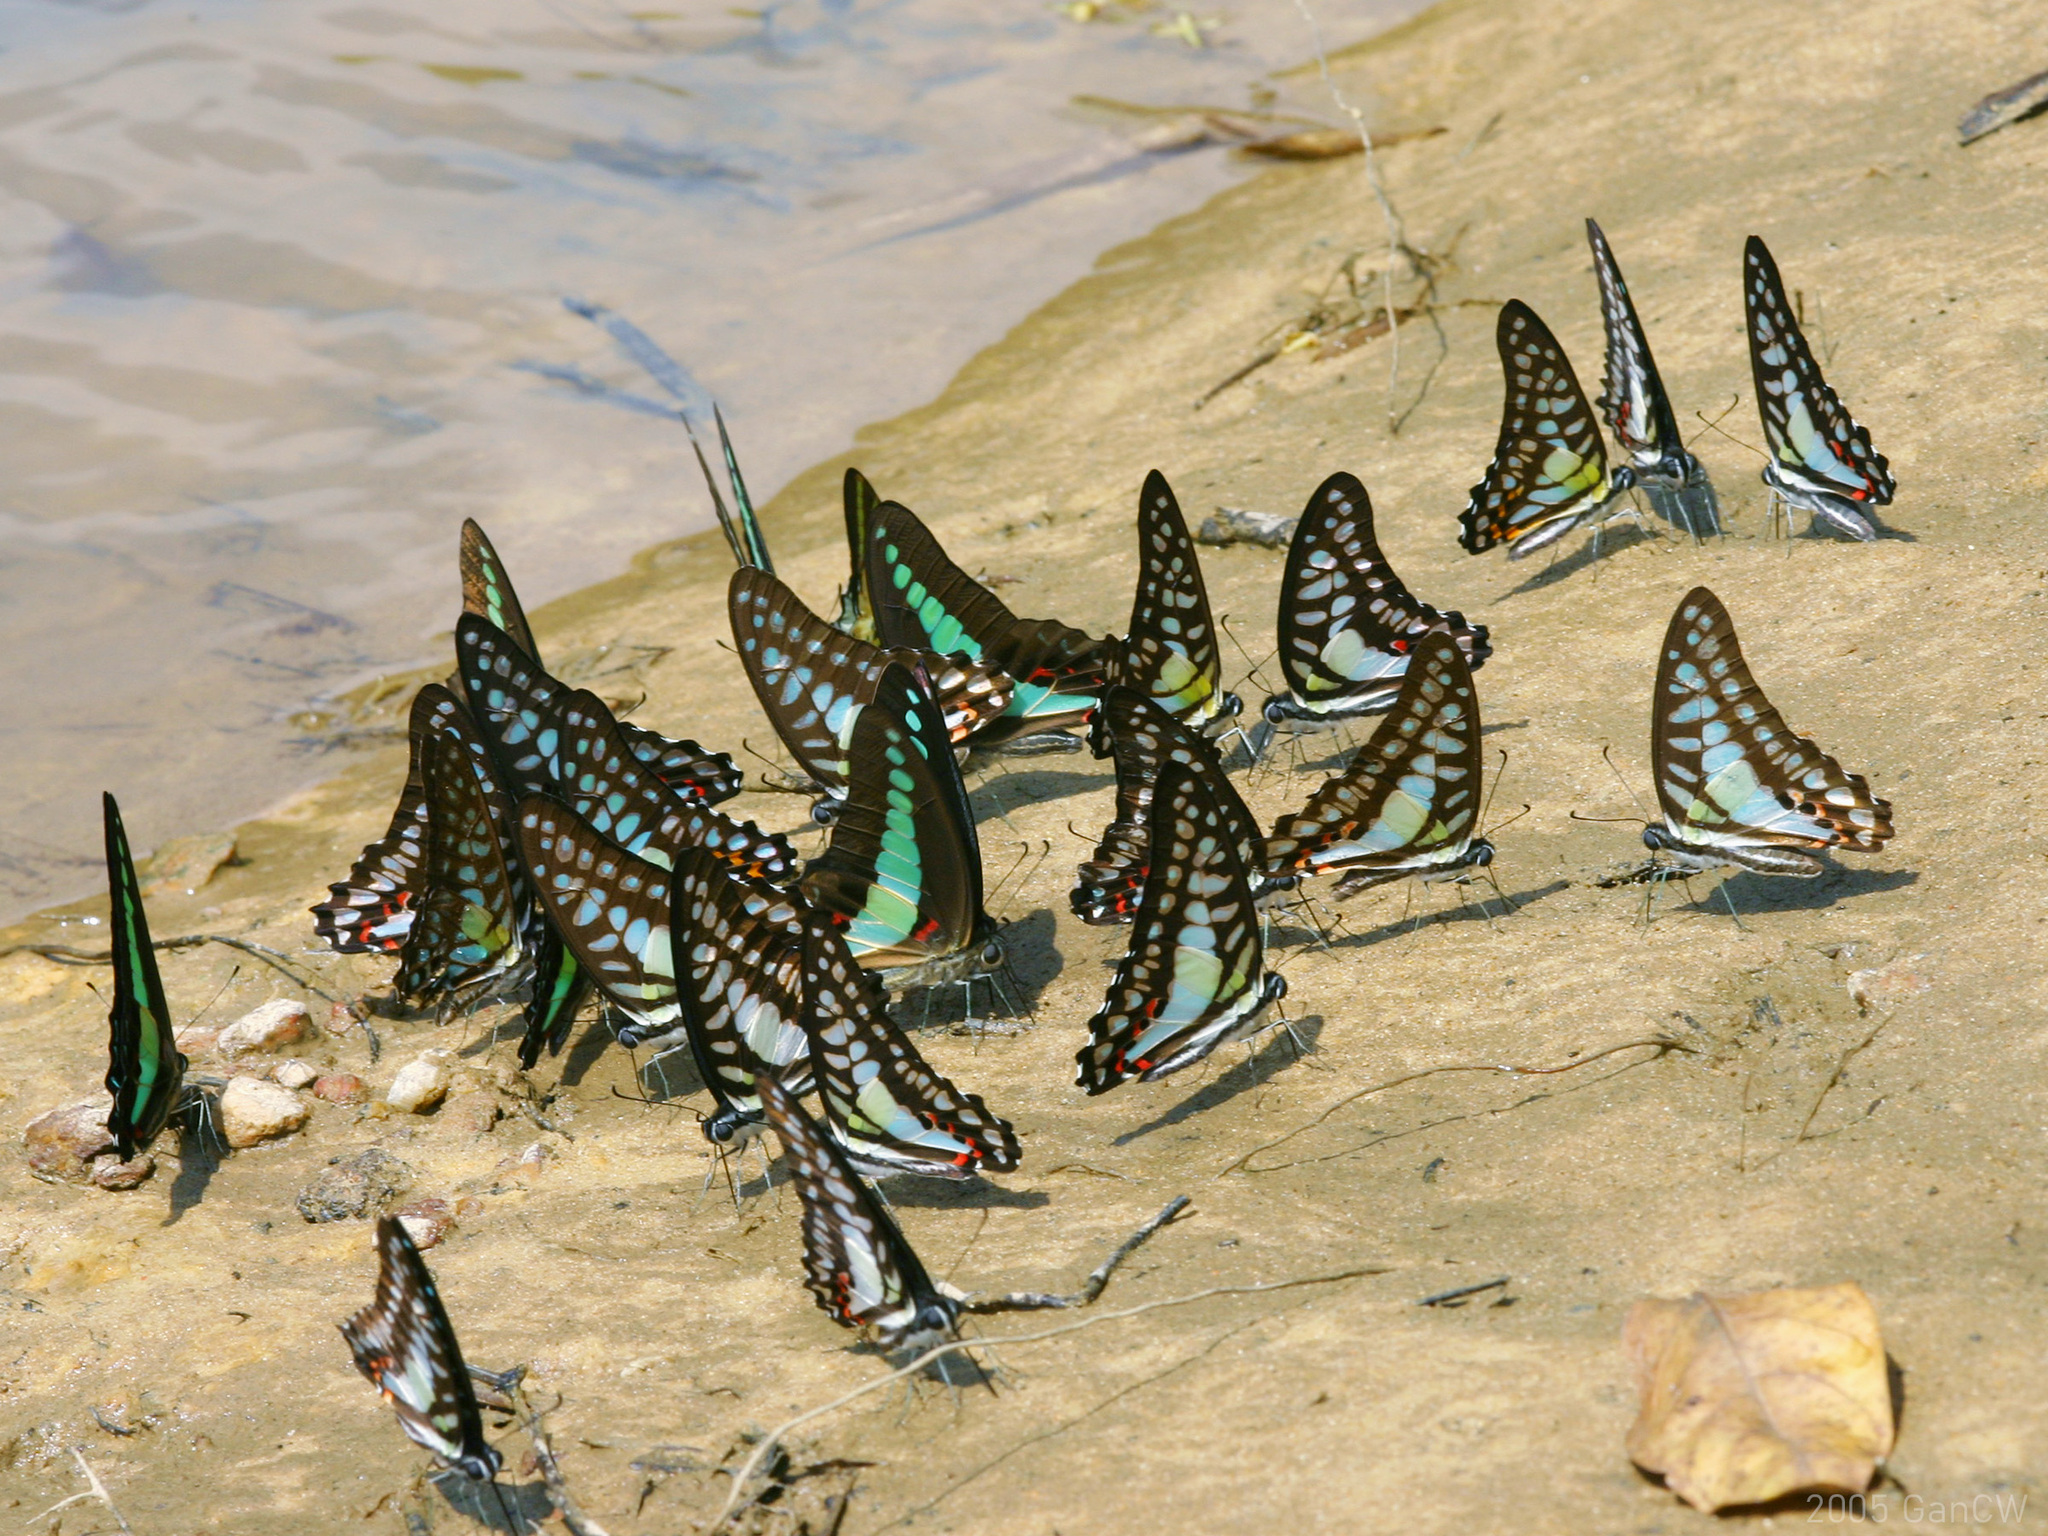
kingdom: Animalia
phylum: Arthropoda
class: Insecta
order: Lepidoptera
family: Papilionidae
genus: Graphium
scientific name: Graphium evemon
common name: Lesser jay
